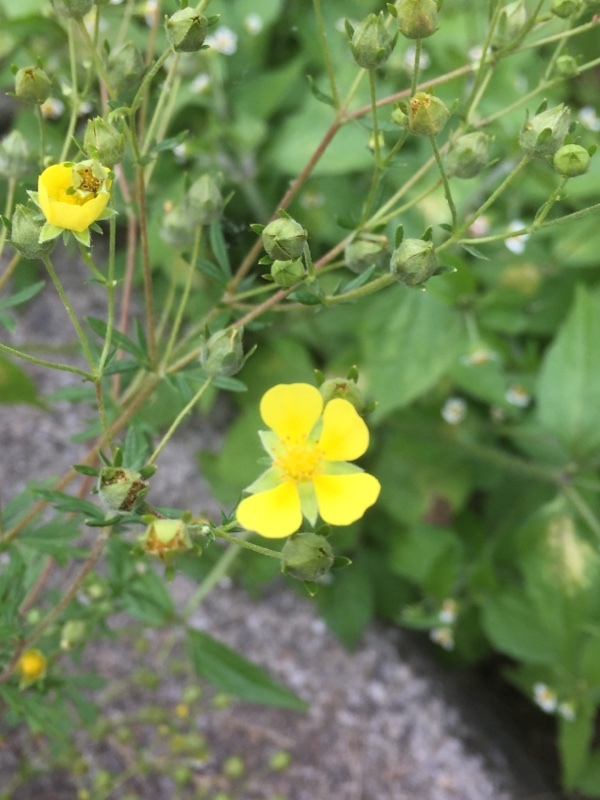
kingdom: Plantae
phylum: Tracheophyta
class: Magnoliopsida
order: Rosales
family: Rosaceae
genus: Potentilla
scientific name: Potentilla argentea
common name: Hoary cinquefoil
